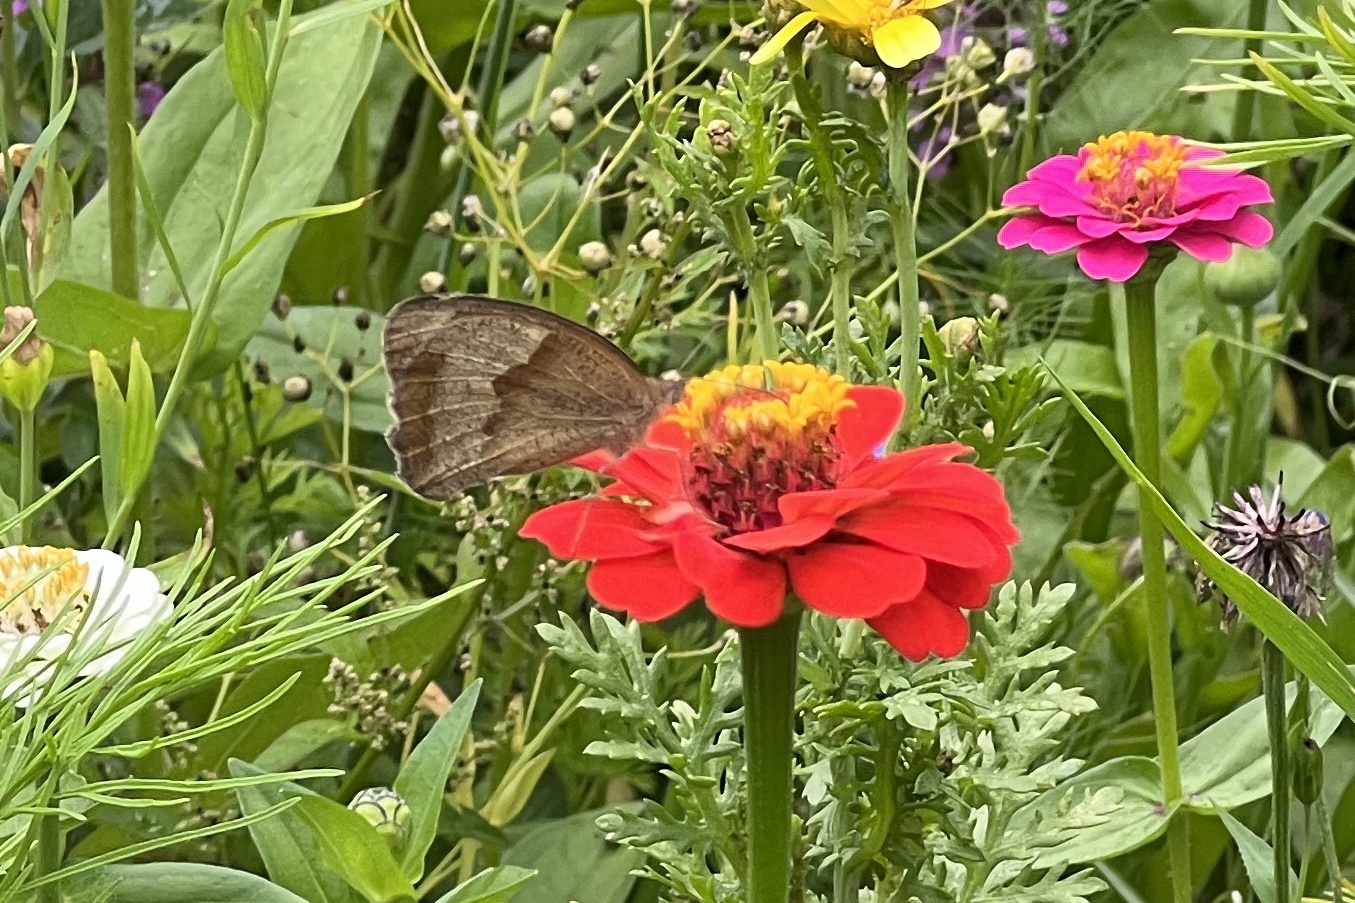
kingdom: Animalia
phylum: Arthropoda
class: Insecta
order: Lepidoptera
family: Nymphalidae
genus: Maniola
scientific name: Maniola jurtina
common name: Meadow brown
